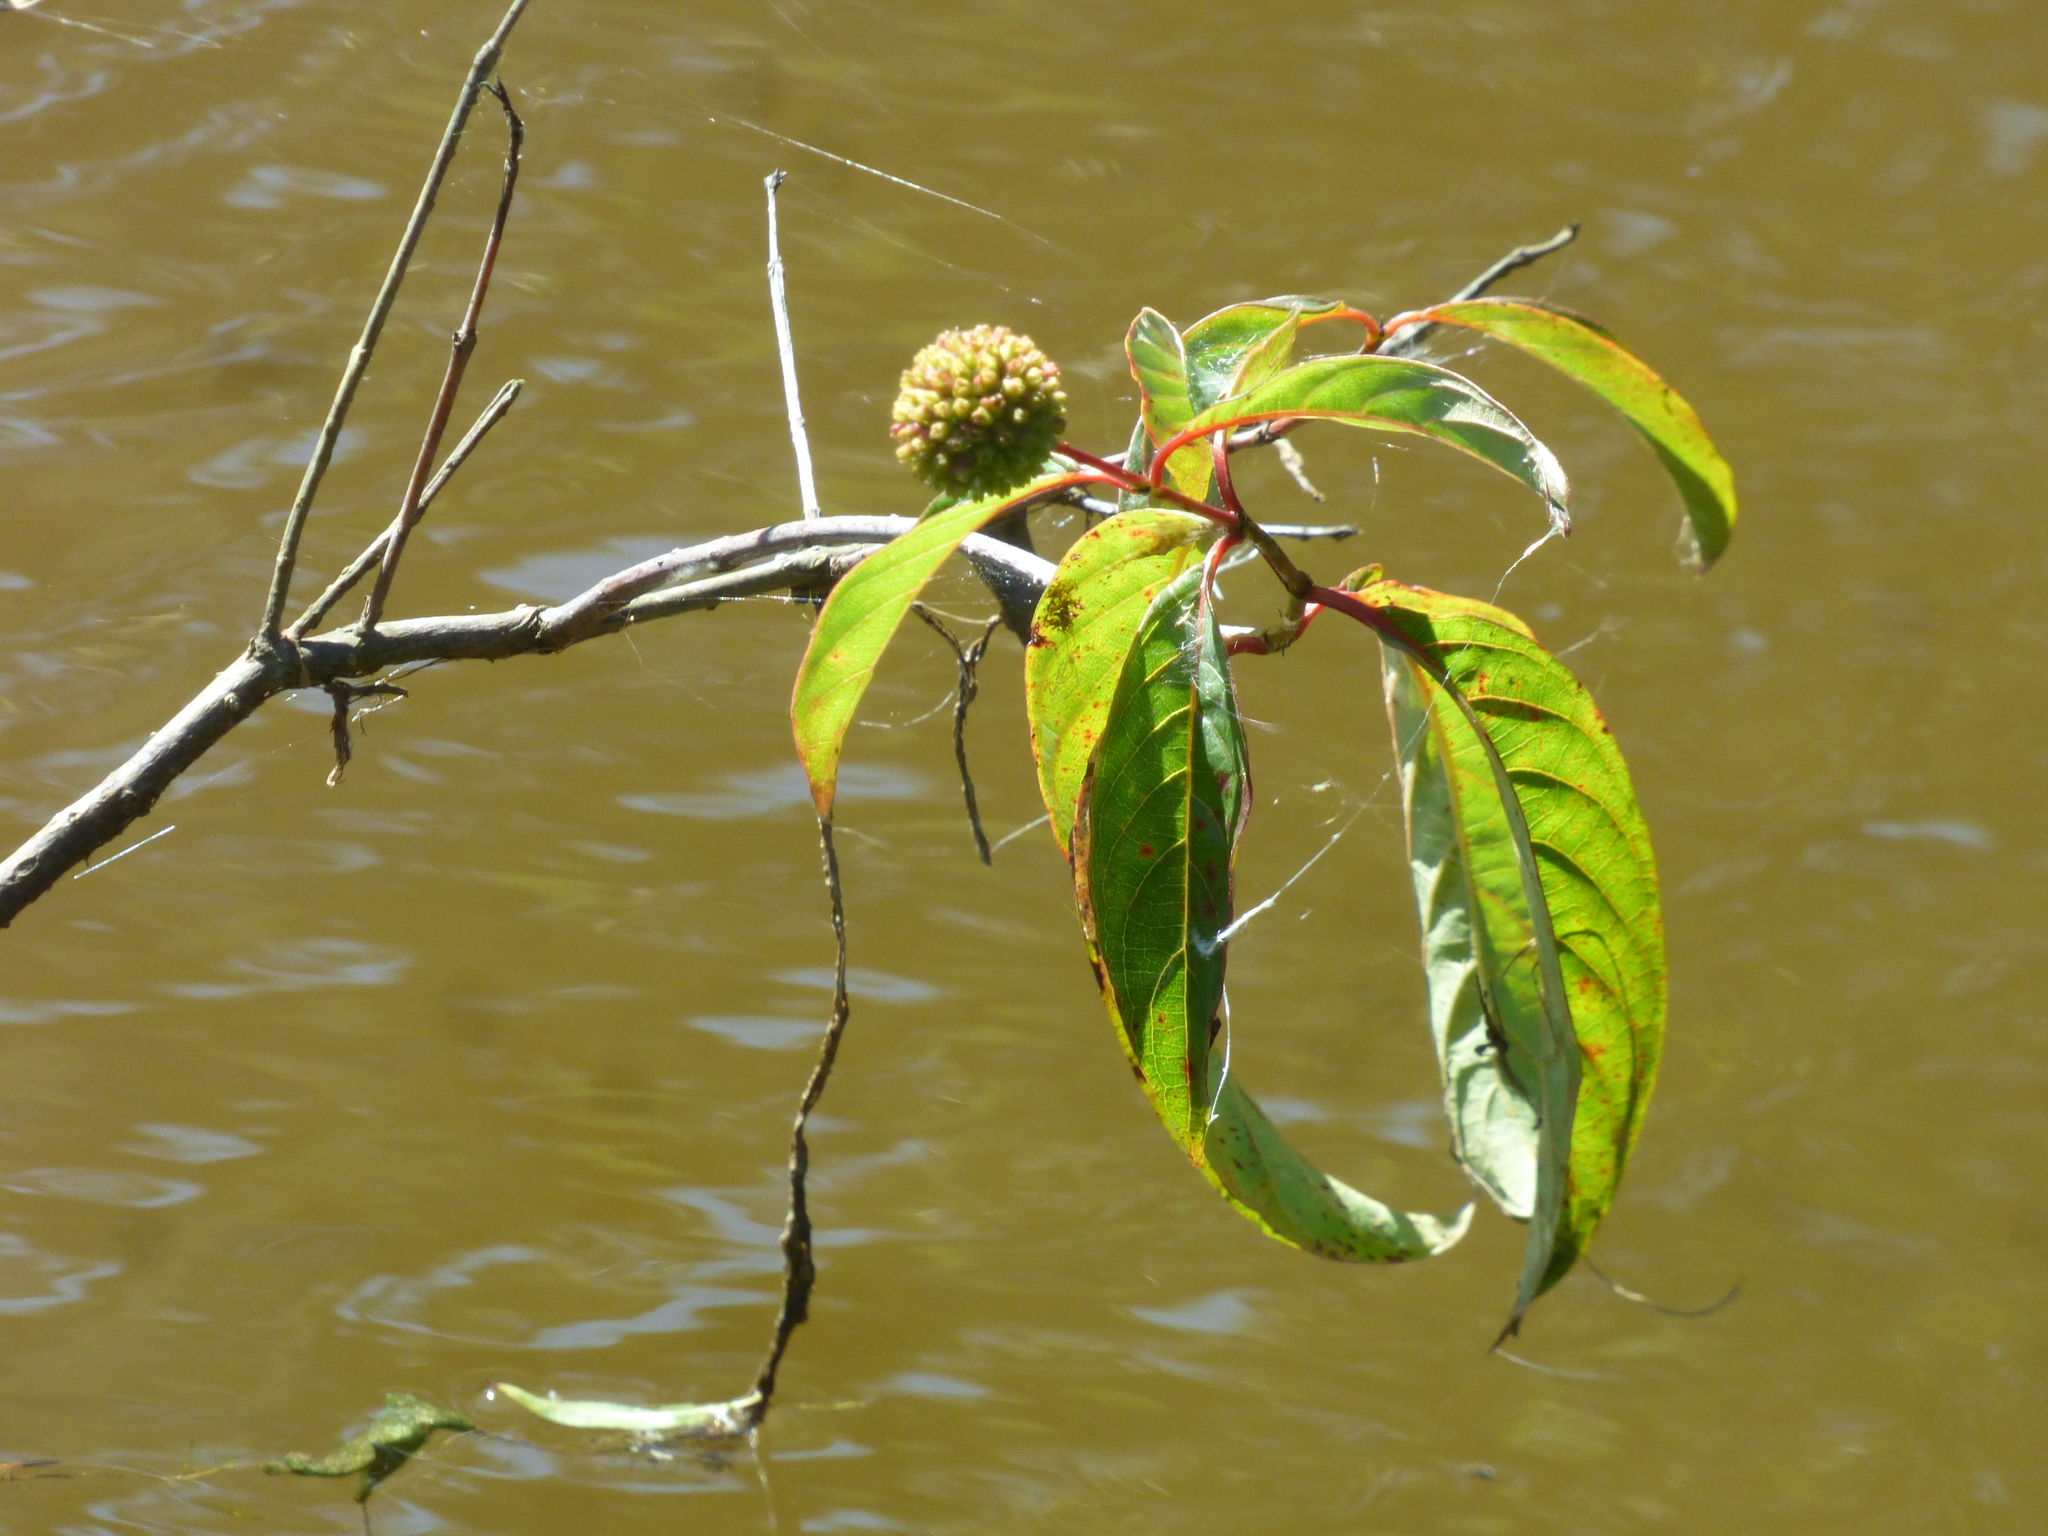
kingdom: Plantae
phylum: Tracheophyta
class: Magnoliopsida
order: Gentianales
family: Rubiaceae
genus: Cephalanthus
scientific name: Cephalanthus occidentalis
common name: Button-willow
